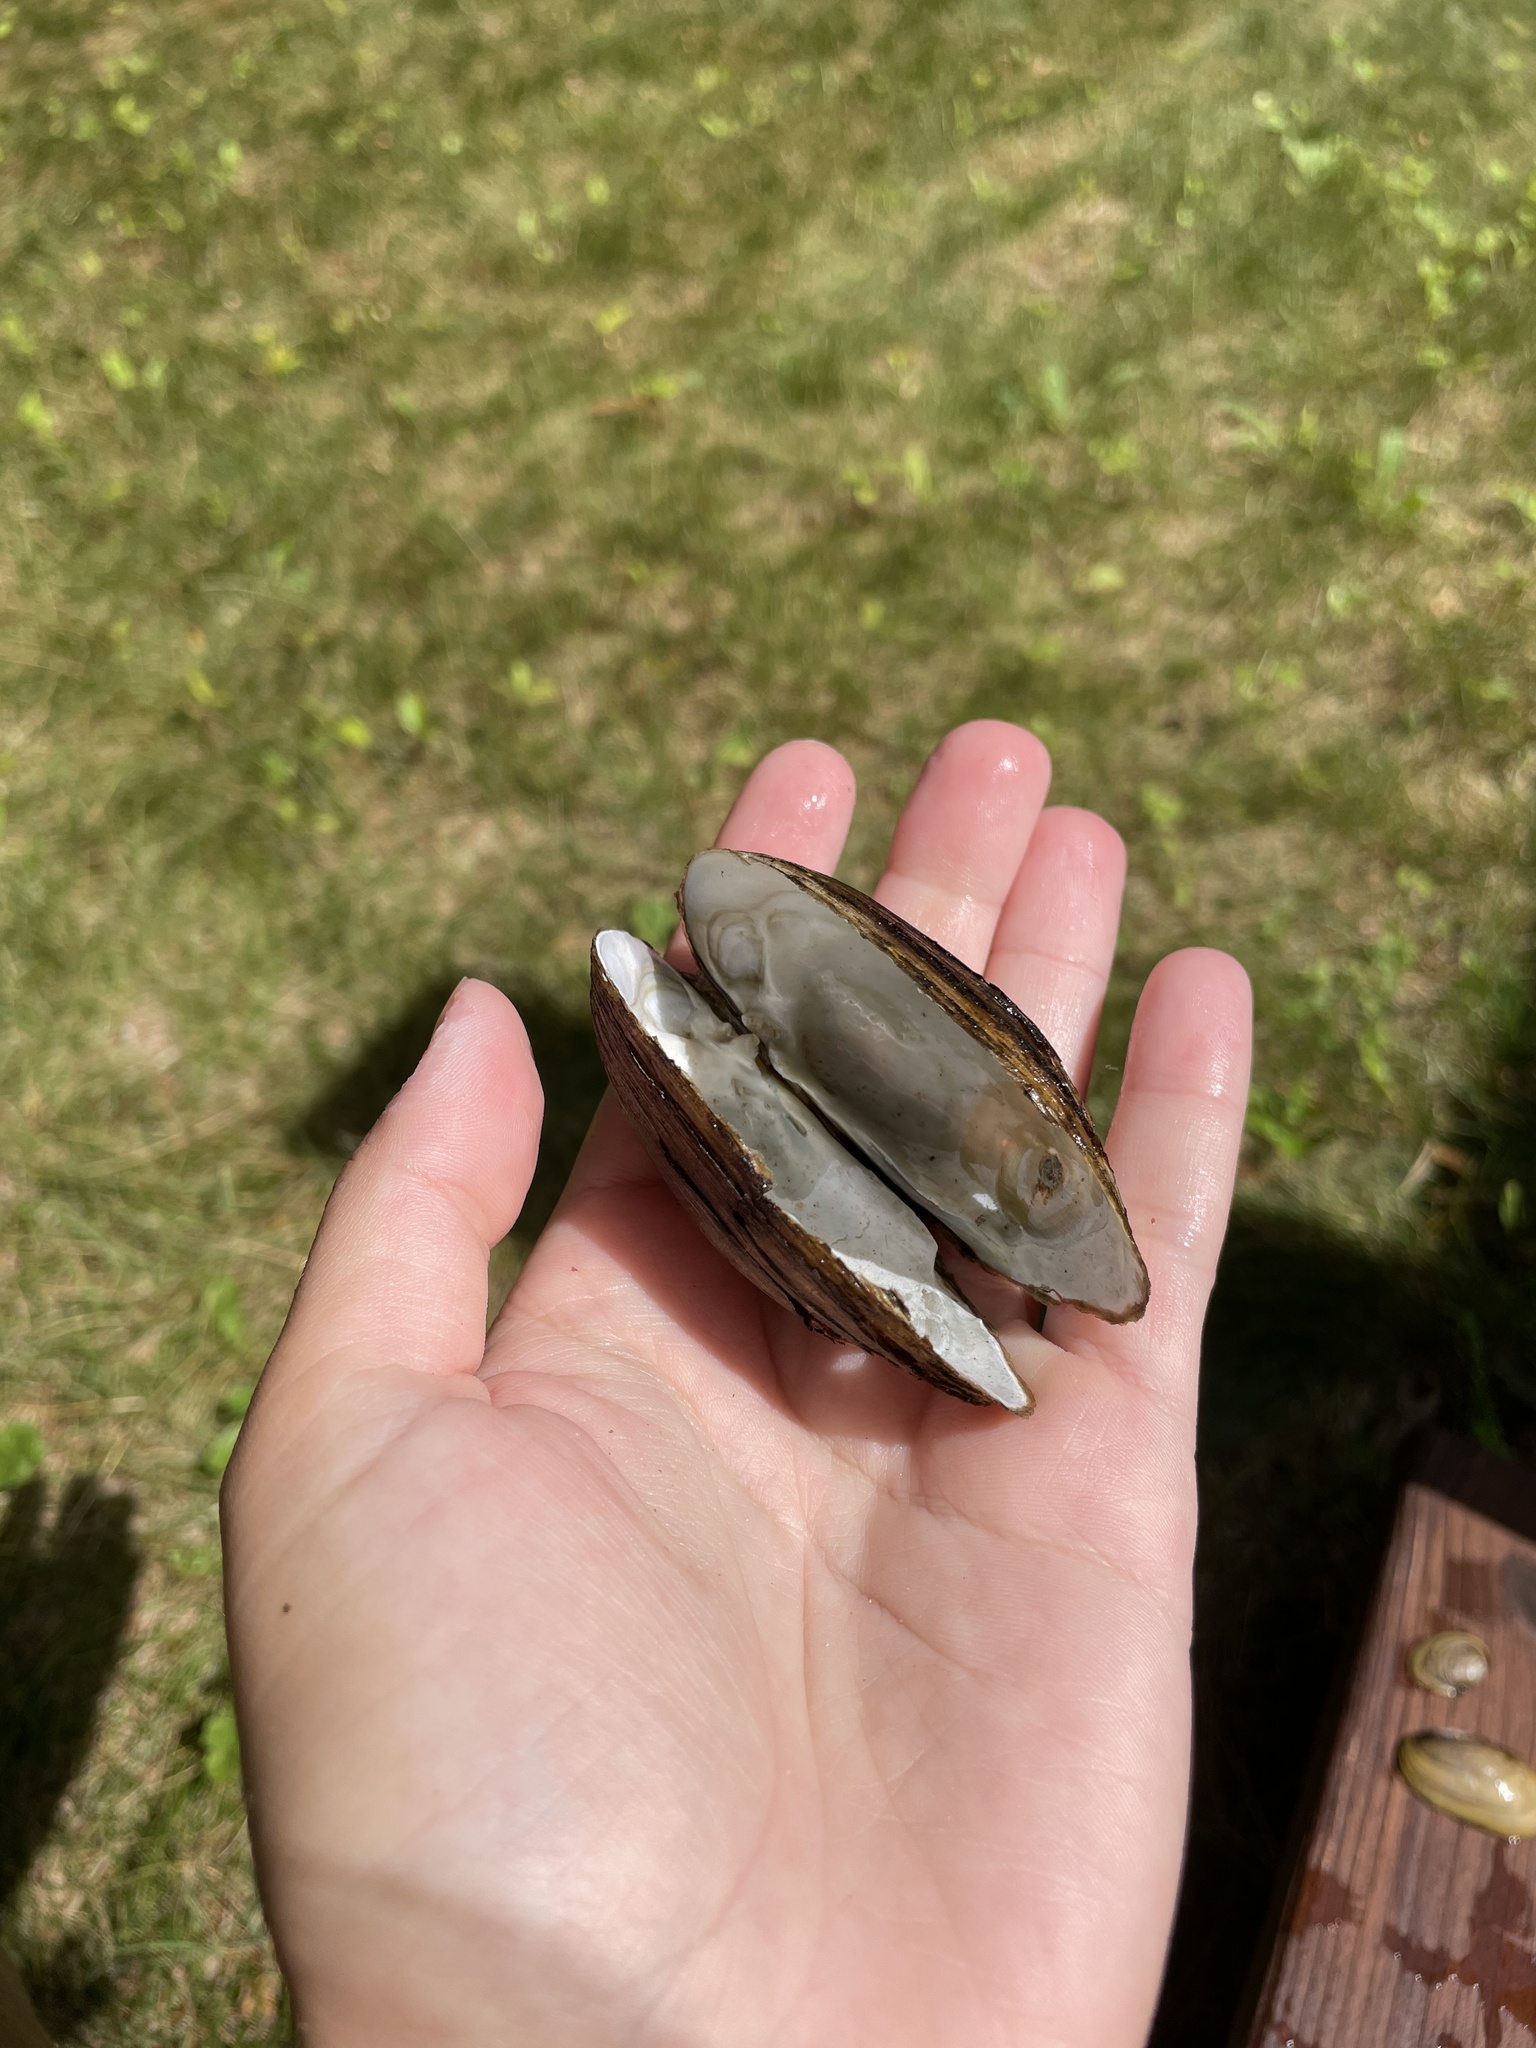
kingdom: Animalia
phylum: Mollusca
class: Bivalvia
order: Unionida
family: Unionidae
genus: Lampsilis
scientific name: Lampsilis siliquoidea
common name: Fatmucket
